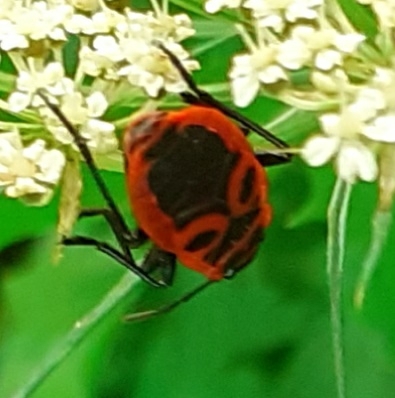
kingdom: Animalia
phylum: Arthropoda
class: Insecta
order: Hemiptera
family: Pyrrhocoridae
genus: Pyrrhocoris
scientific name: Pyrrhocoris apterus
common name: Firebug
